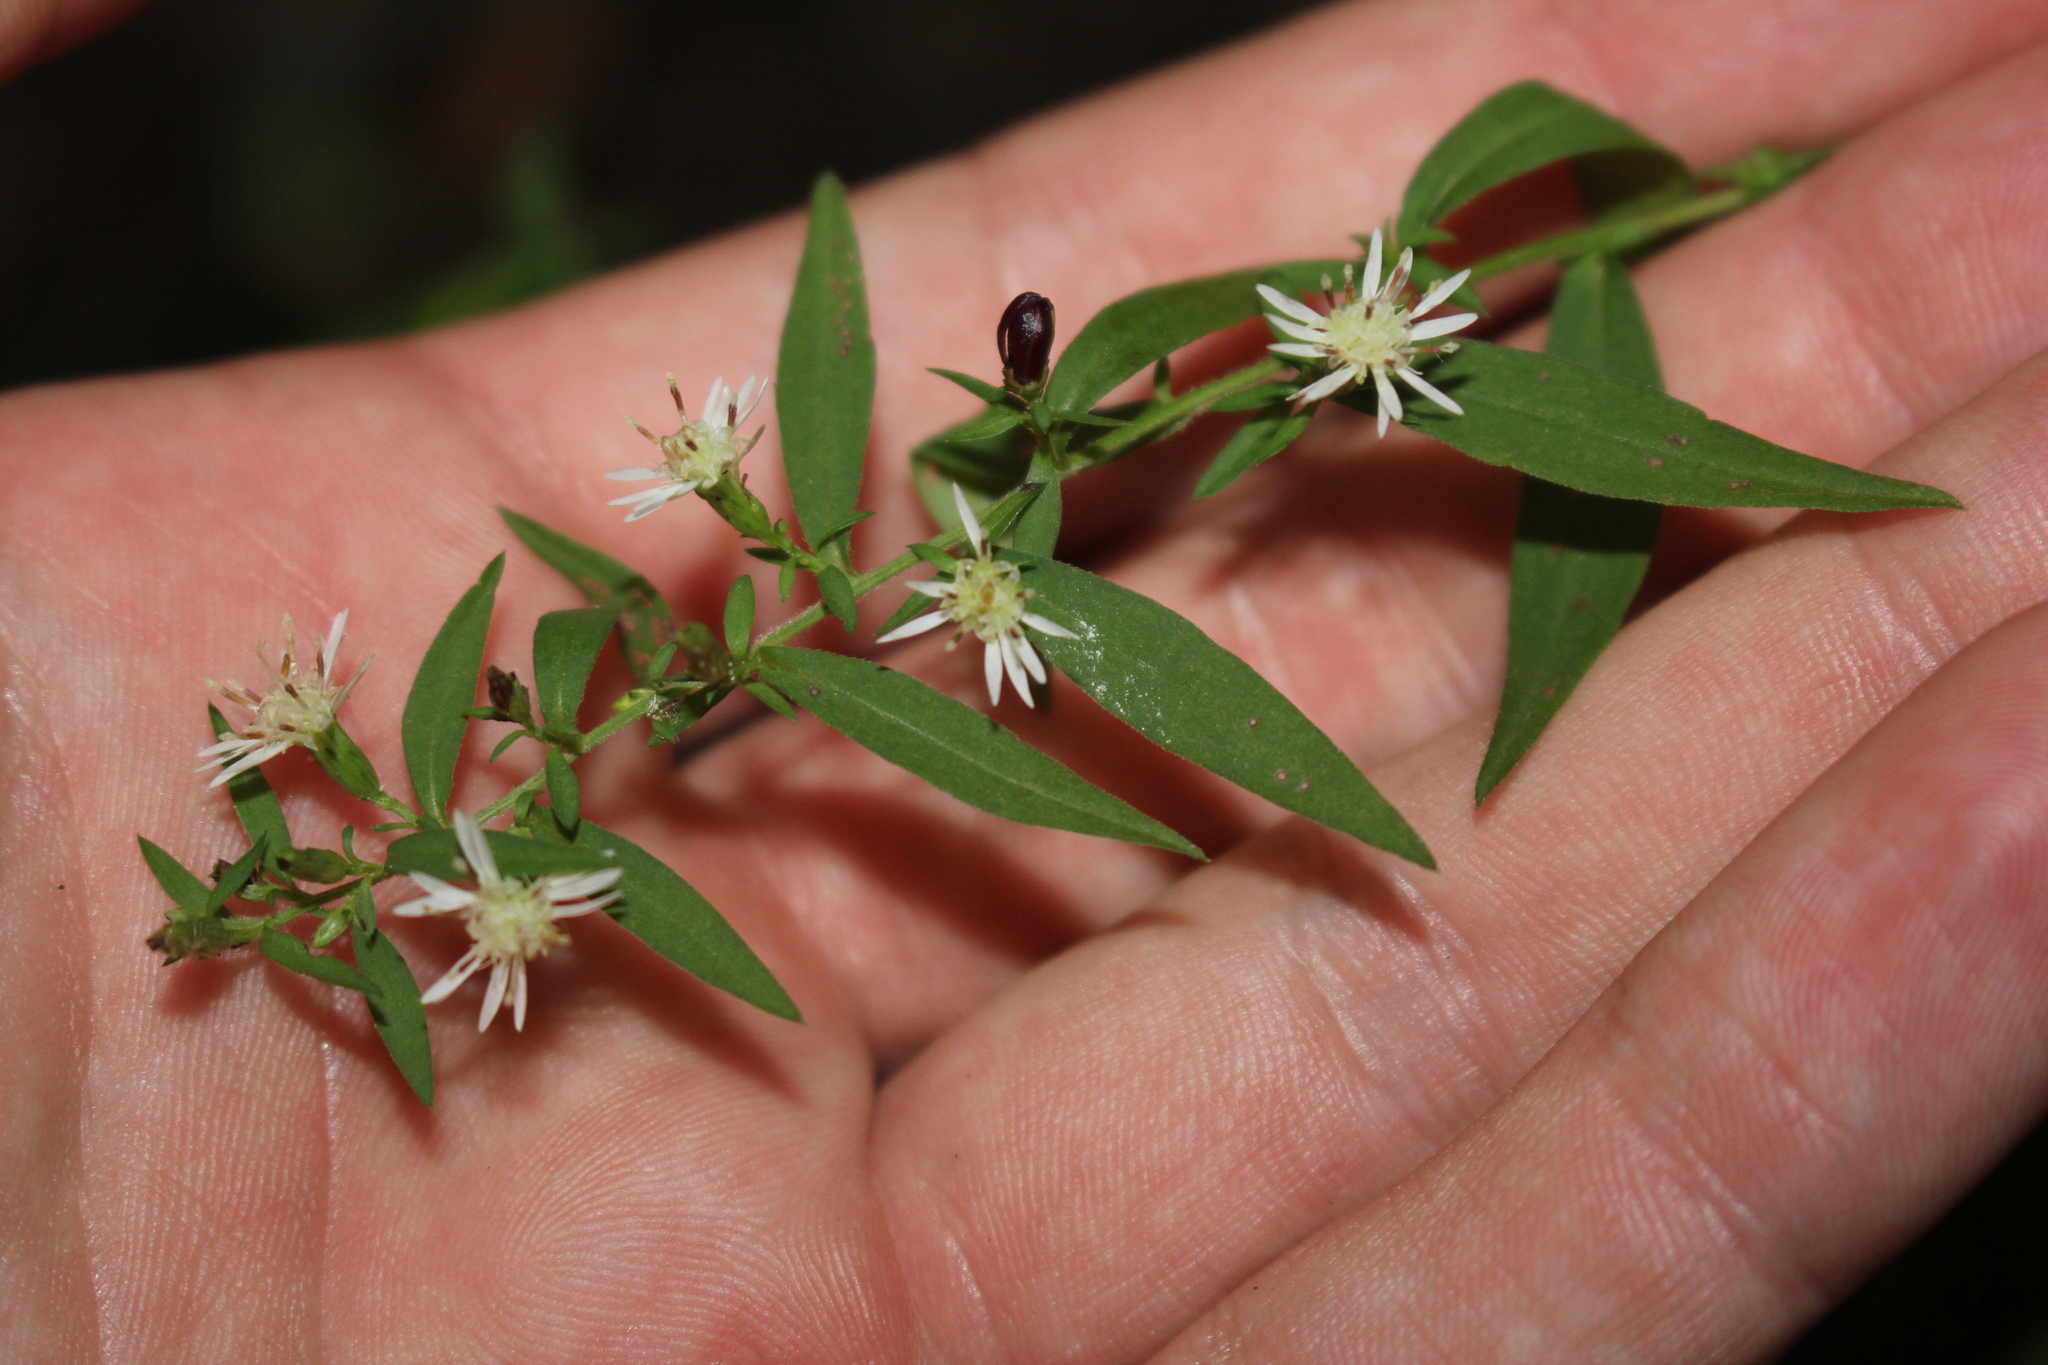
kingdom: Plantae
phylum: Tracheophyta
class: Magnoliopsida
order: Asterales
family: Asteraceae
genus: Symphyotrichum
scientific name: Symphyotrichum lateriflorum
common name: Calico aster
